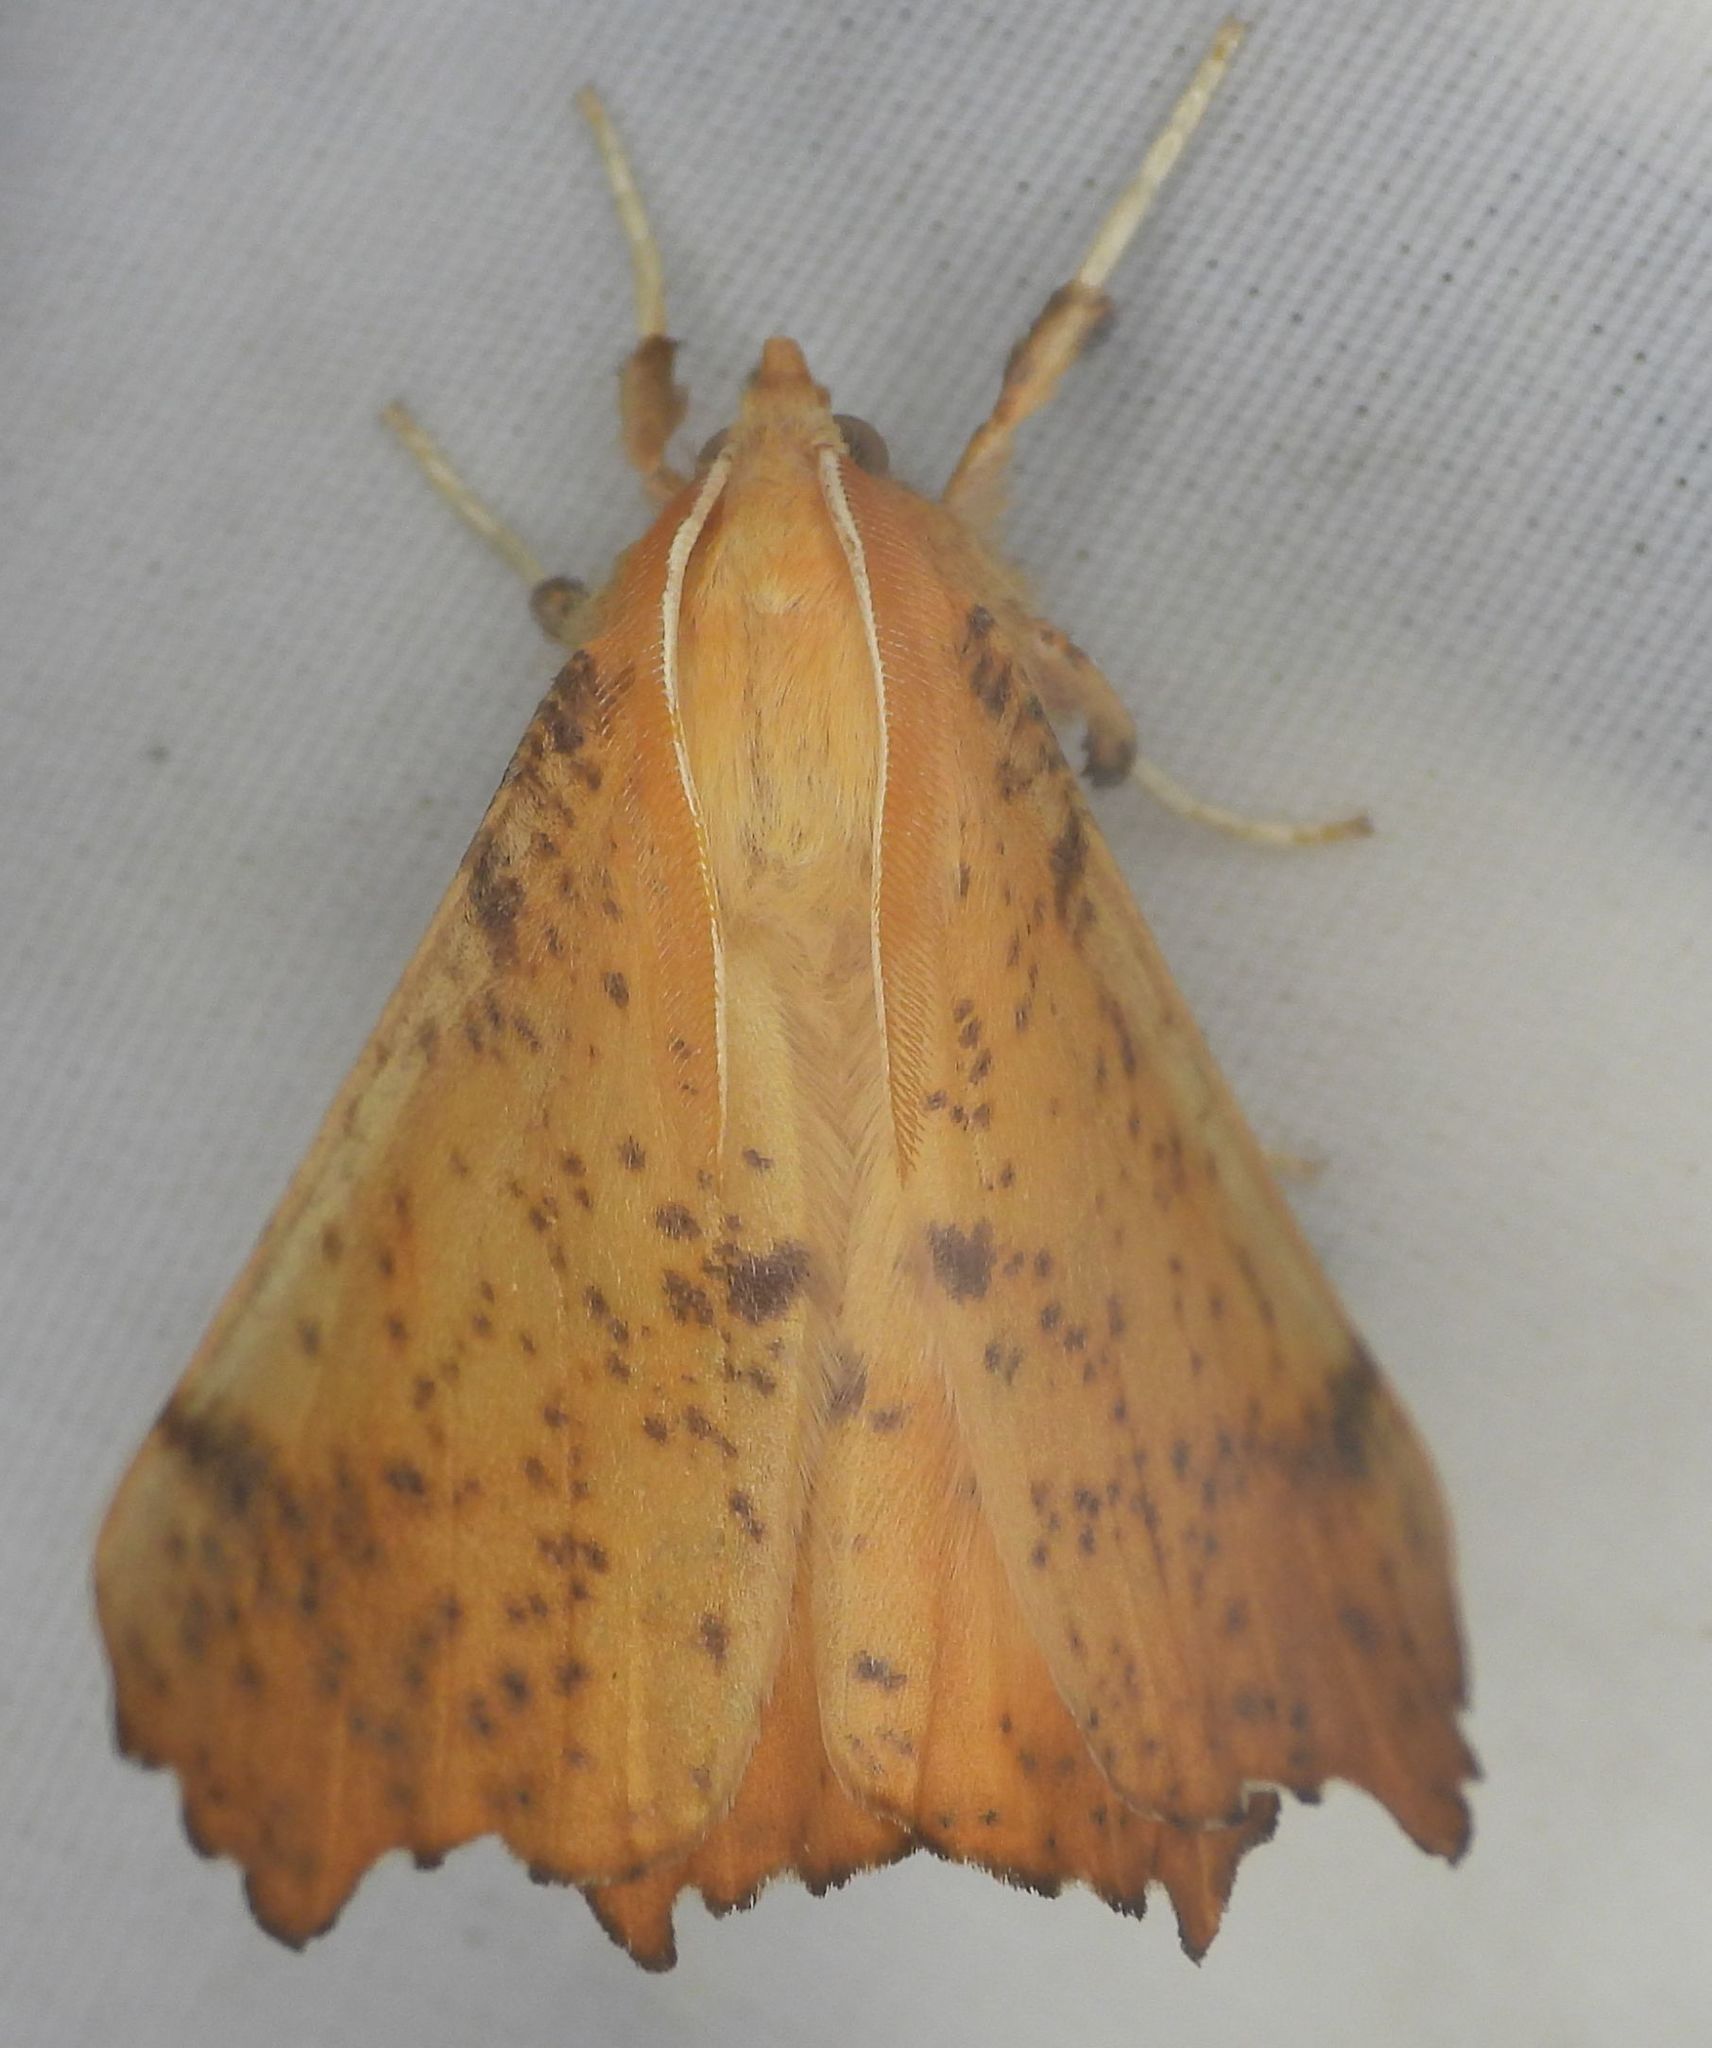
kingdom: Animalia
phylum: Arthropoda
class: Insecta
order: Lepidoptera
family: Geometridae
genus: Ennomos
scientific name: Ennomos magnaria
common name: Maple spanworm
